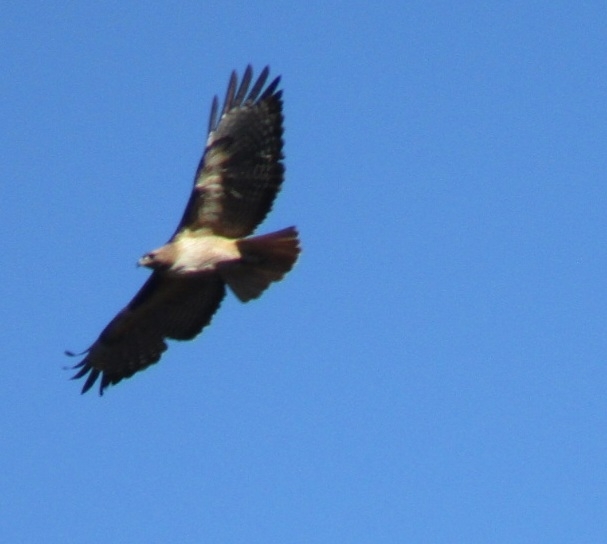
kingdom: Animalia
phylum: Chordata
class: Aves
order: Accipitriformes
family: Accipitridae
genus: Buteo
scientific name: Buteo jamaicensis
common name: Red-tailed hawk
